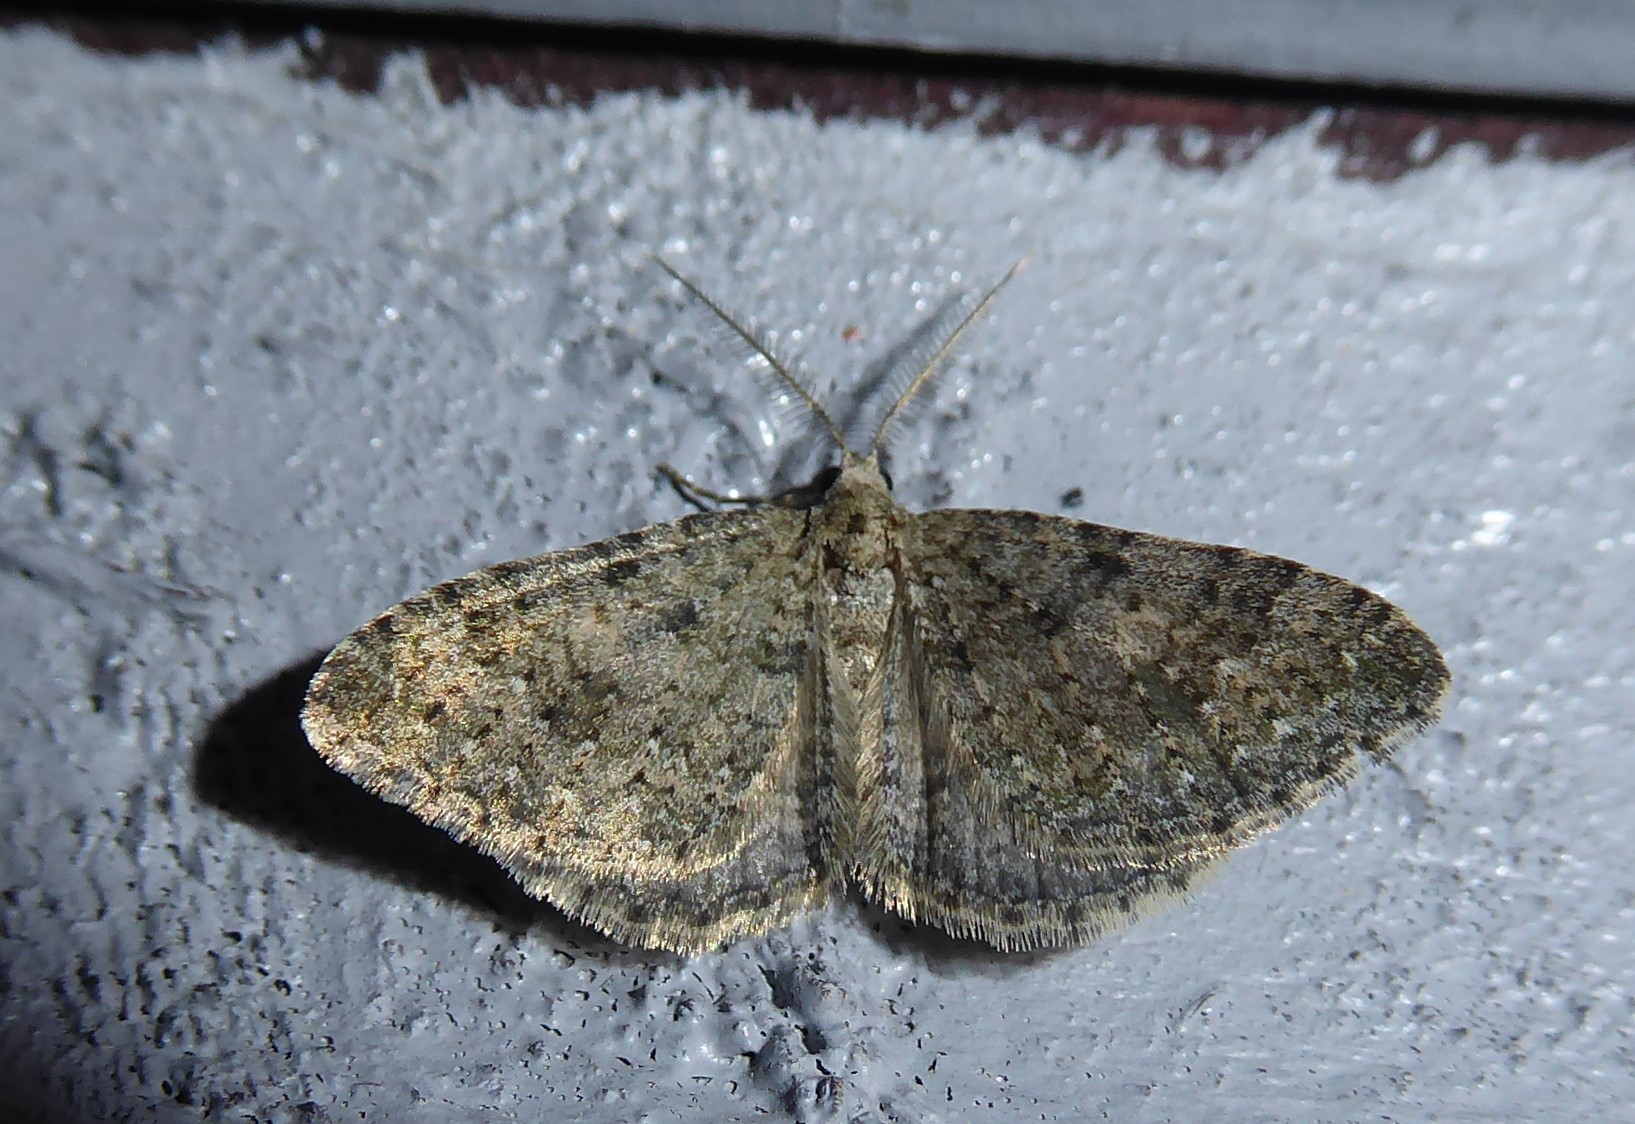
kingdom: Animalia
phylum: Arthropoda
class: Insecta
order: Lepidoptera
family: Geometridae
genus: Helastia
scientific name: Helastia corcularia
